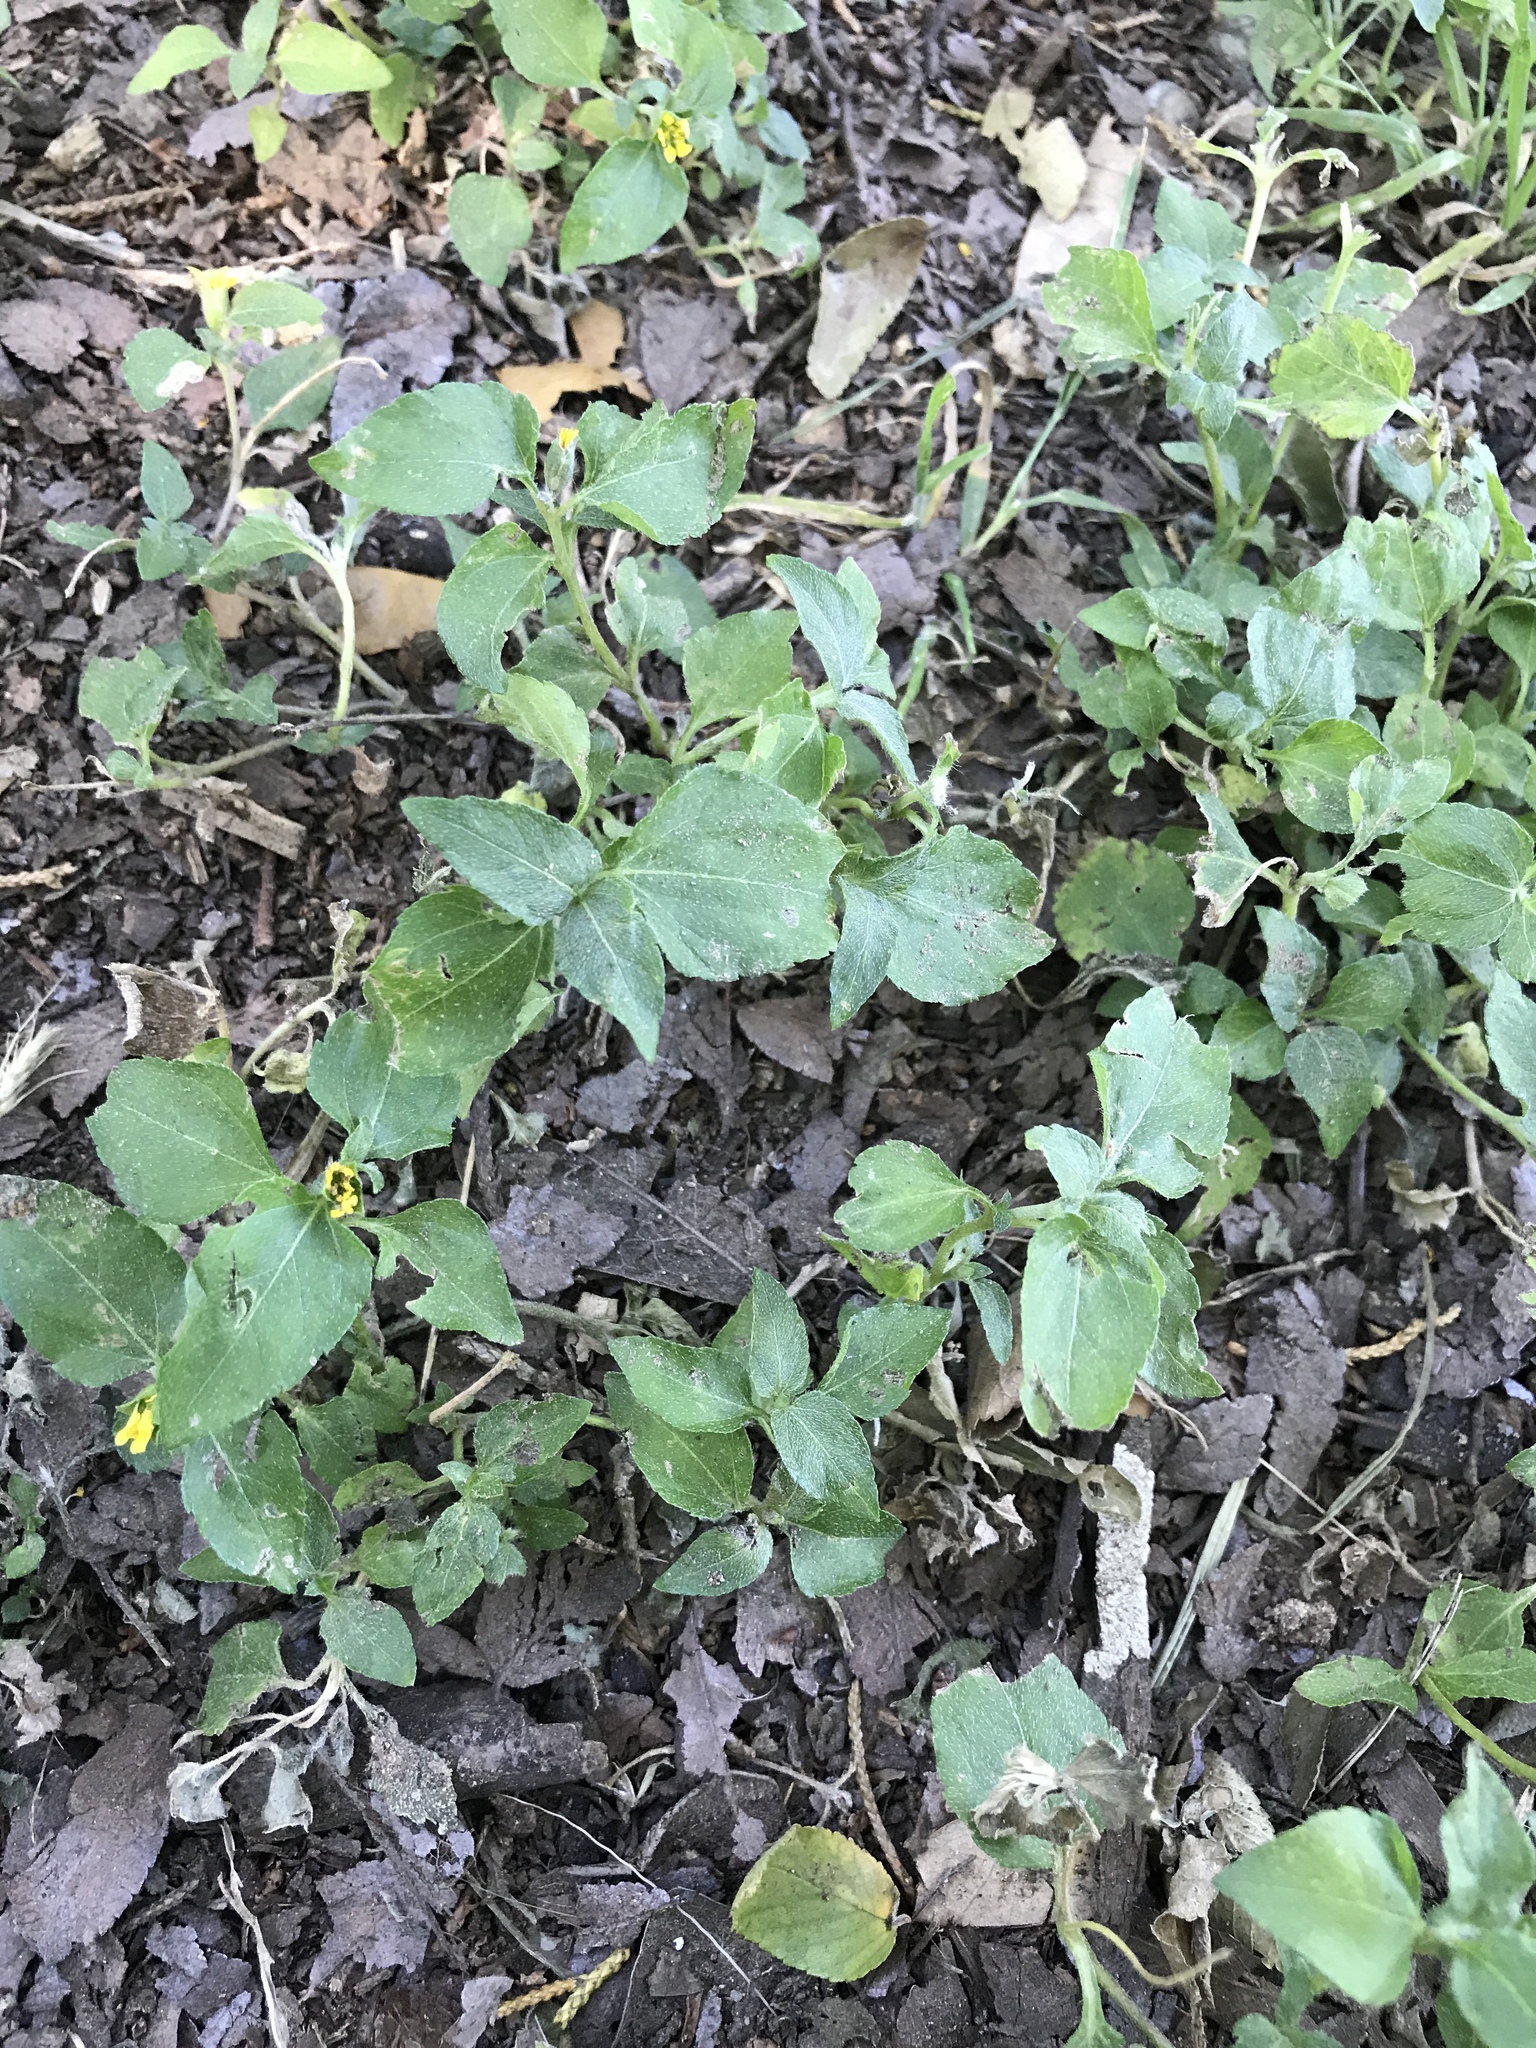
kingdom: Plantae
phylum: Tracheophyta
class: Magnoliopsida
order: Asterales
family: Asteraceae
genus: Calyptocarpus
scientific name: Calyptocarpus vialis
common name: Straggler daisy
